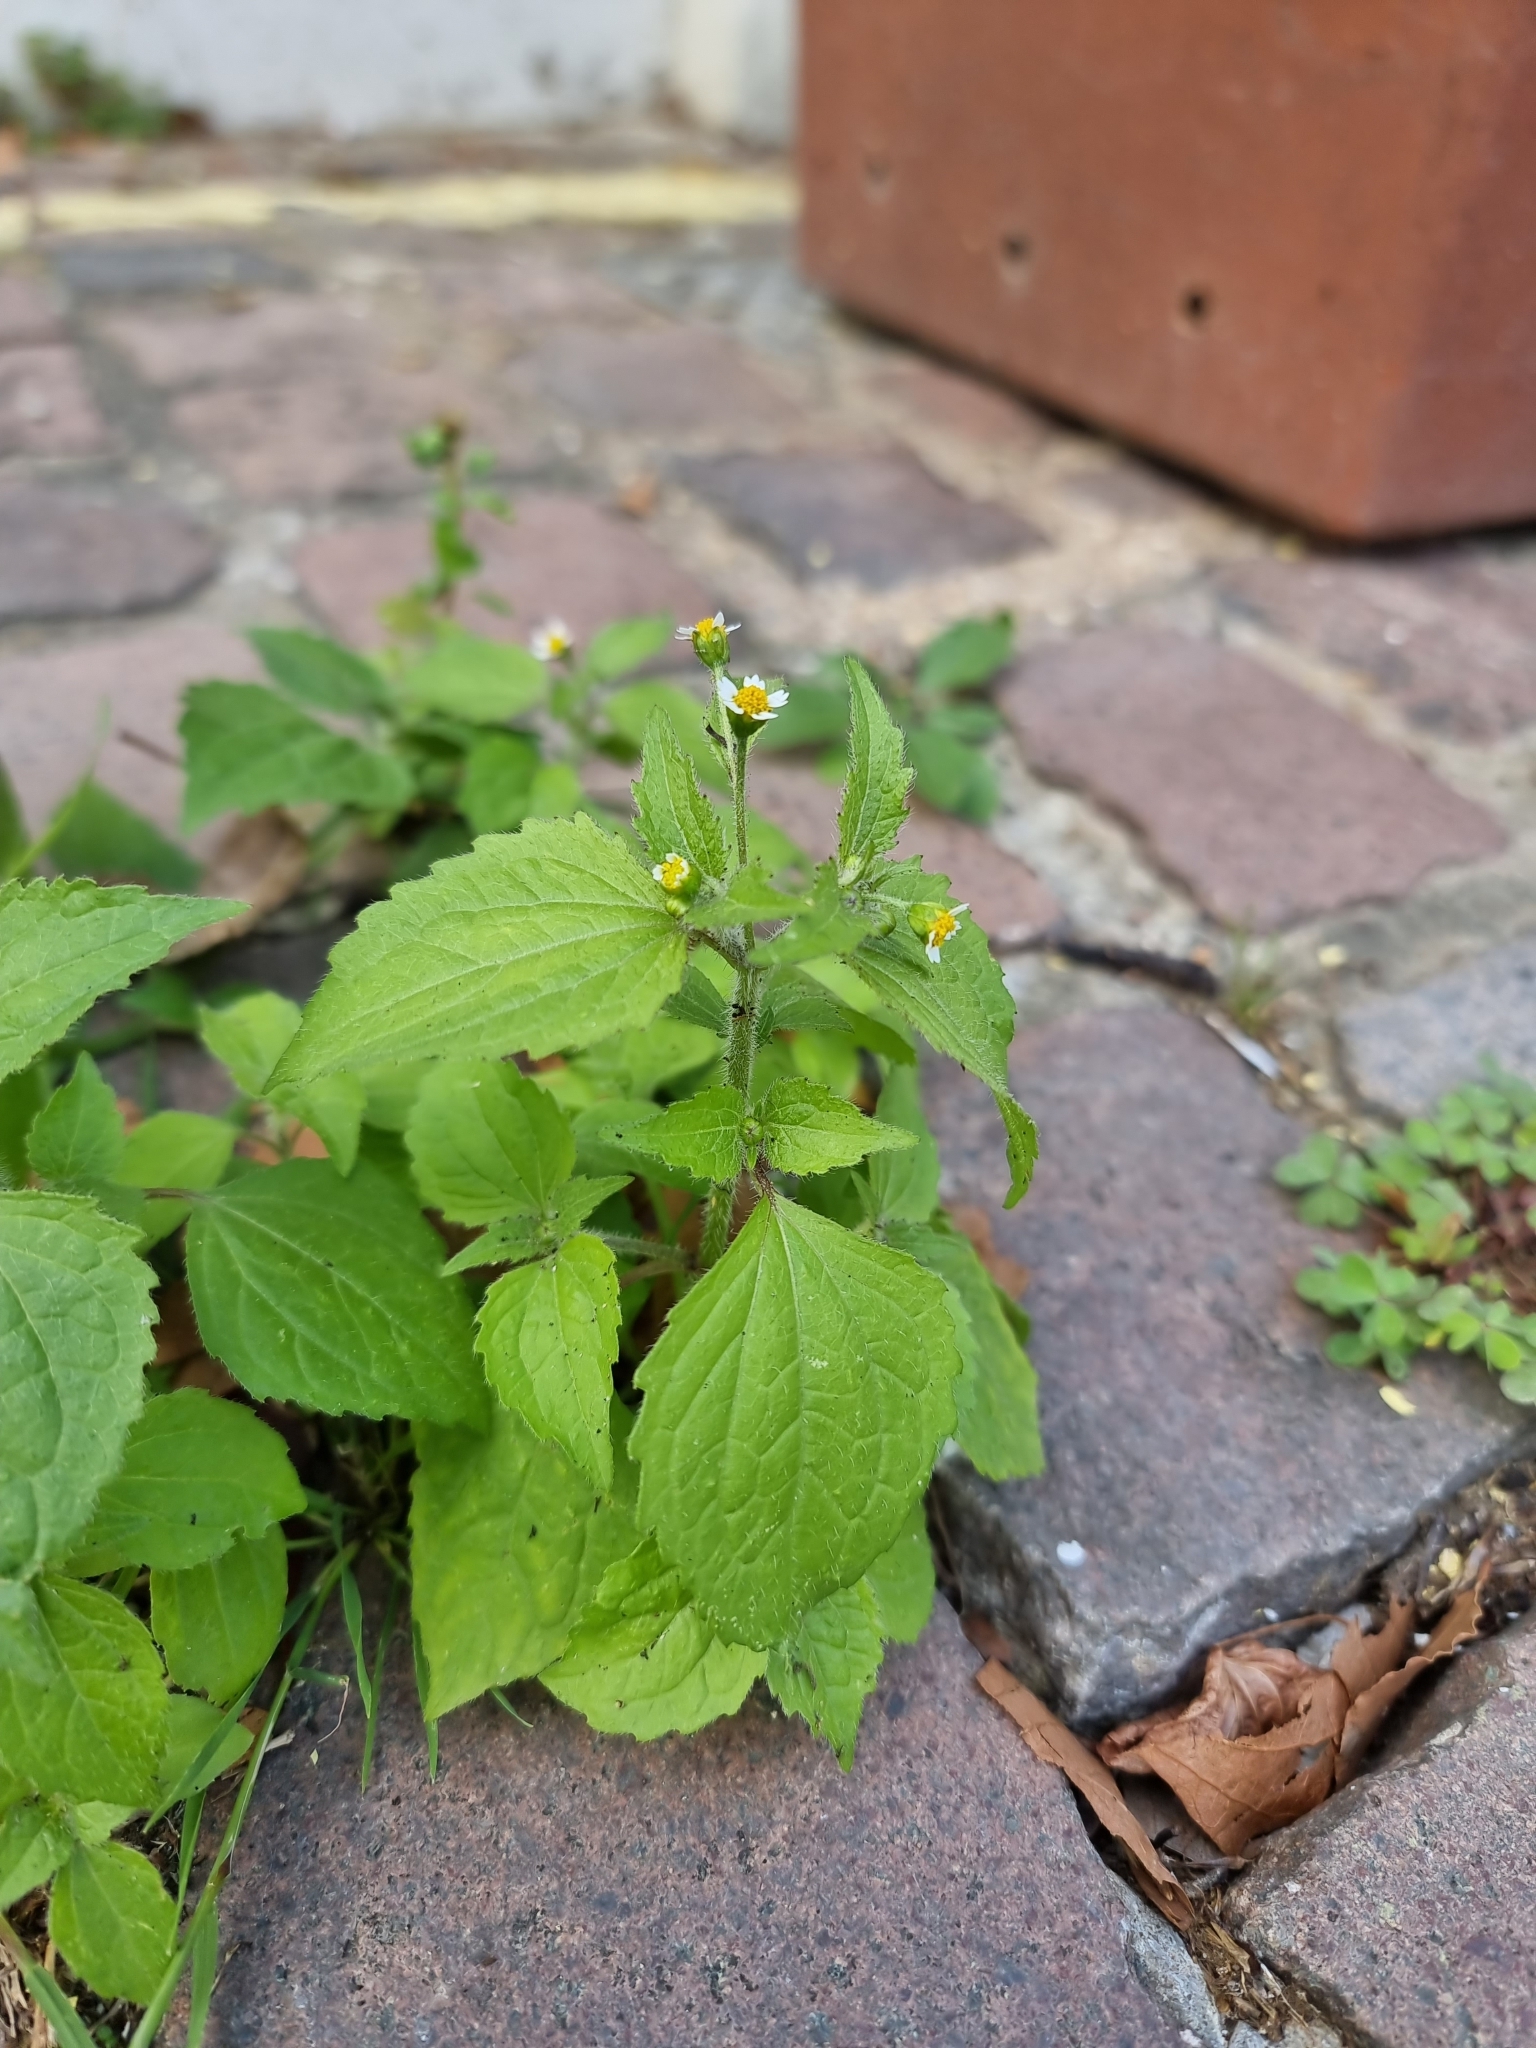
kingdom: Plantae
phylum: Tracheophyta
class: Magnoliopsida
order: Asterales
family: Asteraceae
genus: Galinsoga
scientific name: Galinsoga quadriradiata
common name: Shaggy soldier
